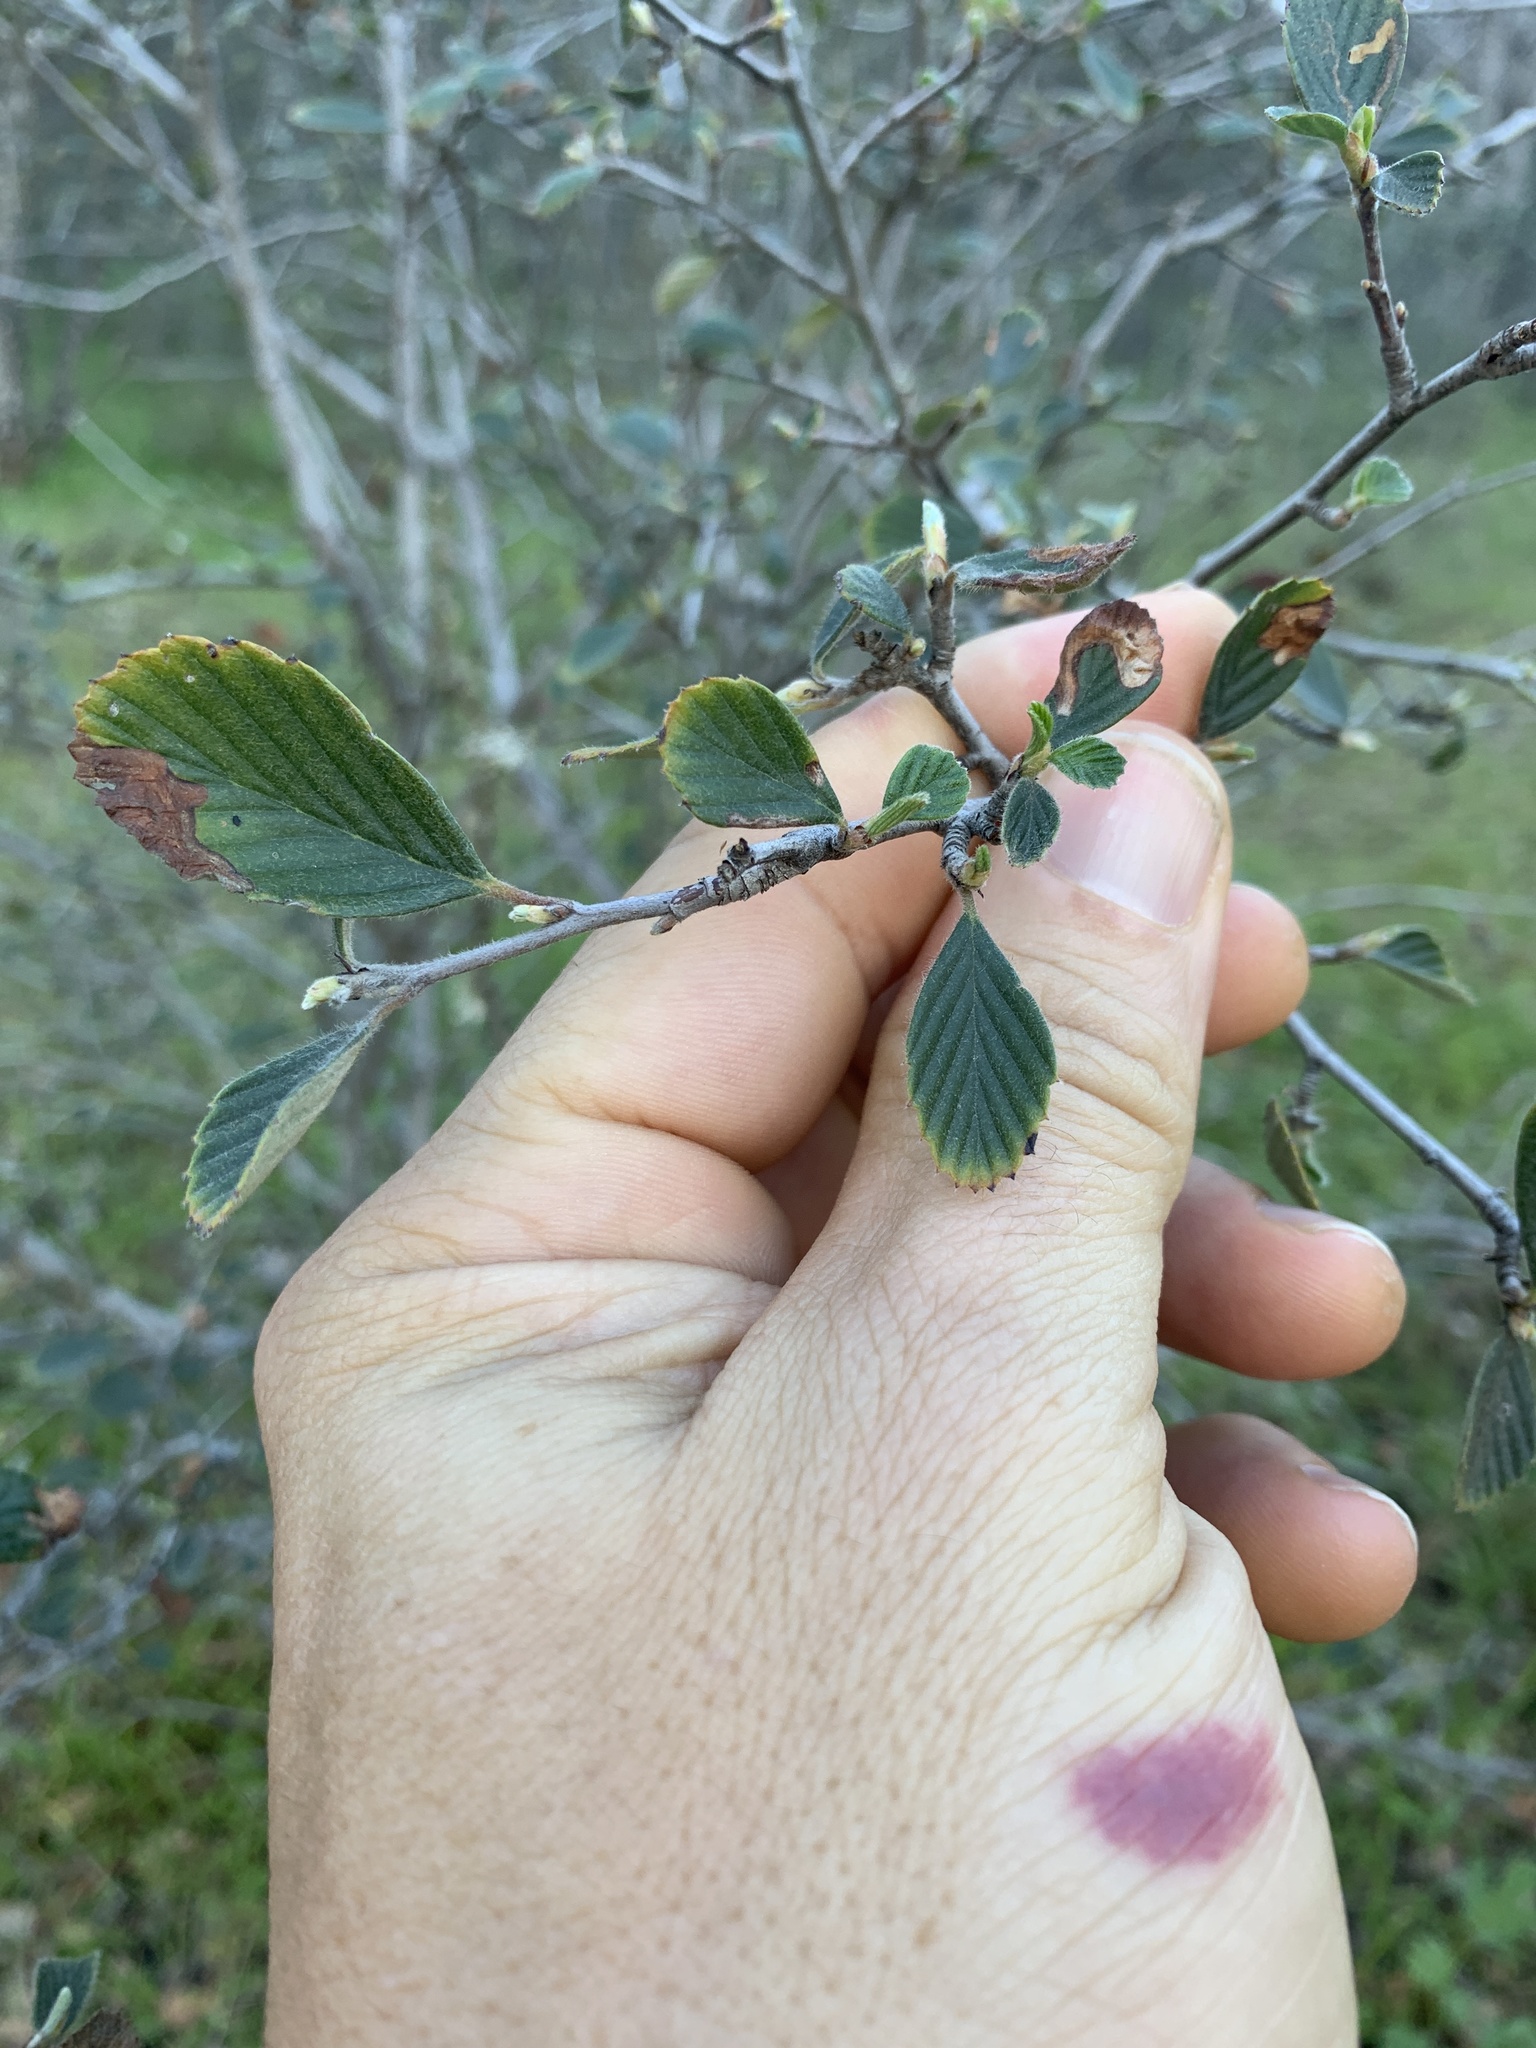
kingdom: Plantae
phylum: Tracheophyta
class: Magnoliopsida
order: Rosales
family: Rosaceae
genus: Cercocarpus
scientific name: Cercocarpus betuloides
